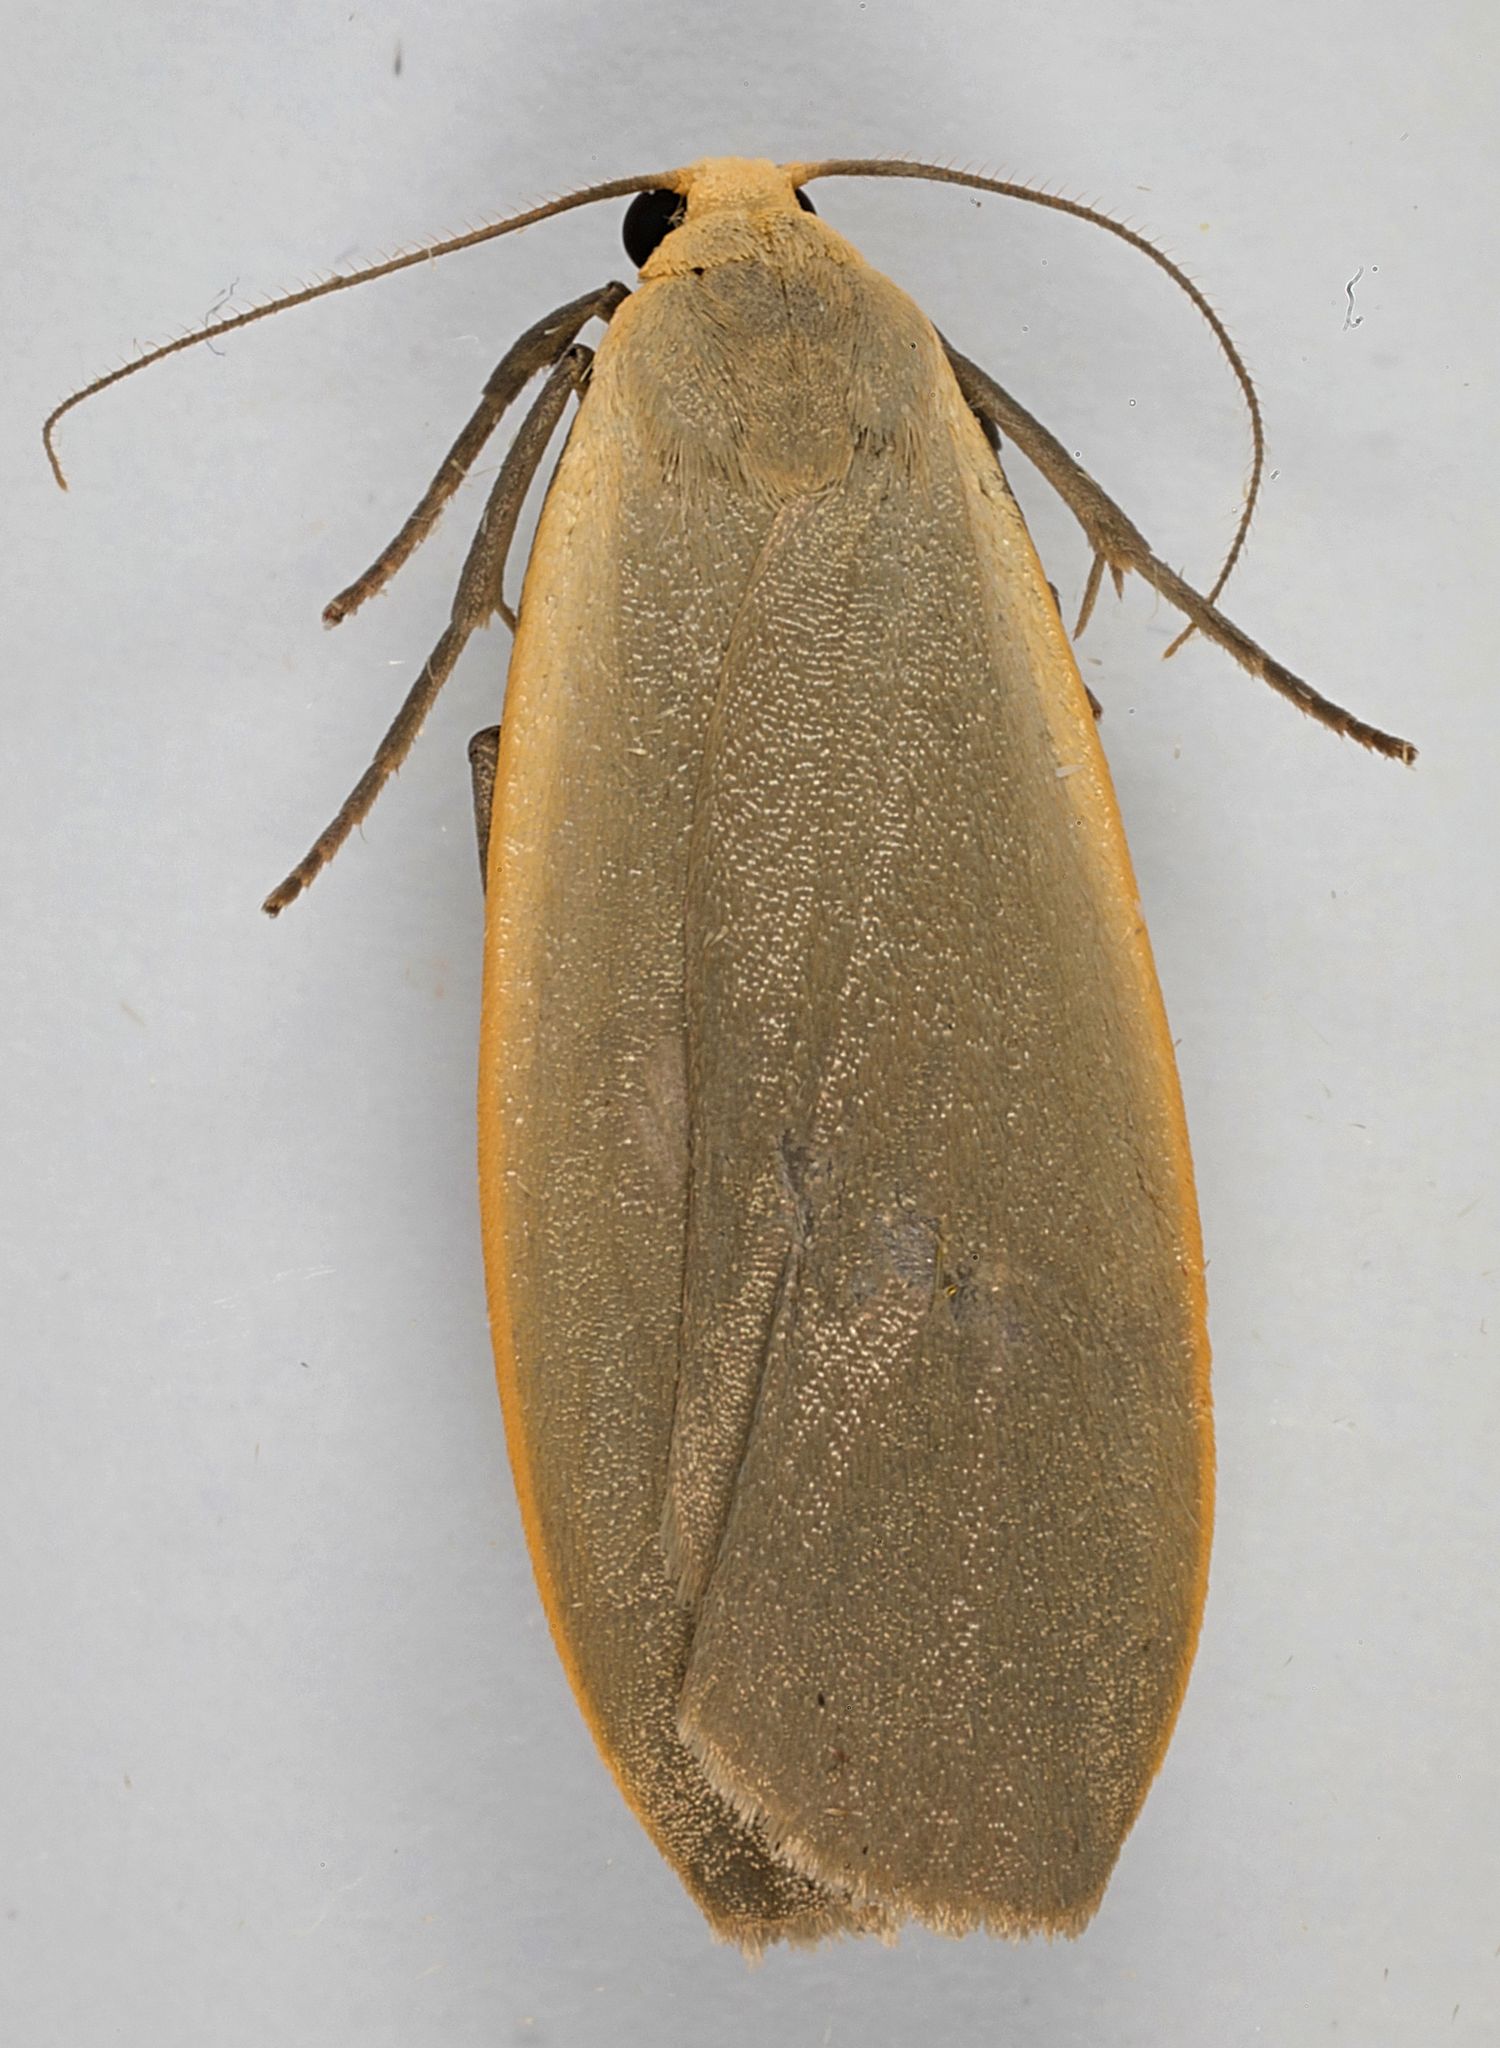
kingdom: Animalia
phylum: Arthropoda
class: Insecta
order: Lepidoptera
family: Erebidae
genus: Collita
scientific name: Collita griseola
